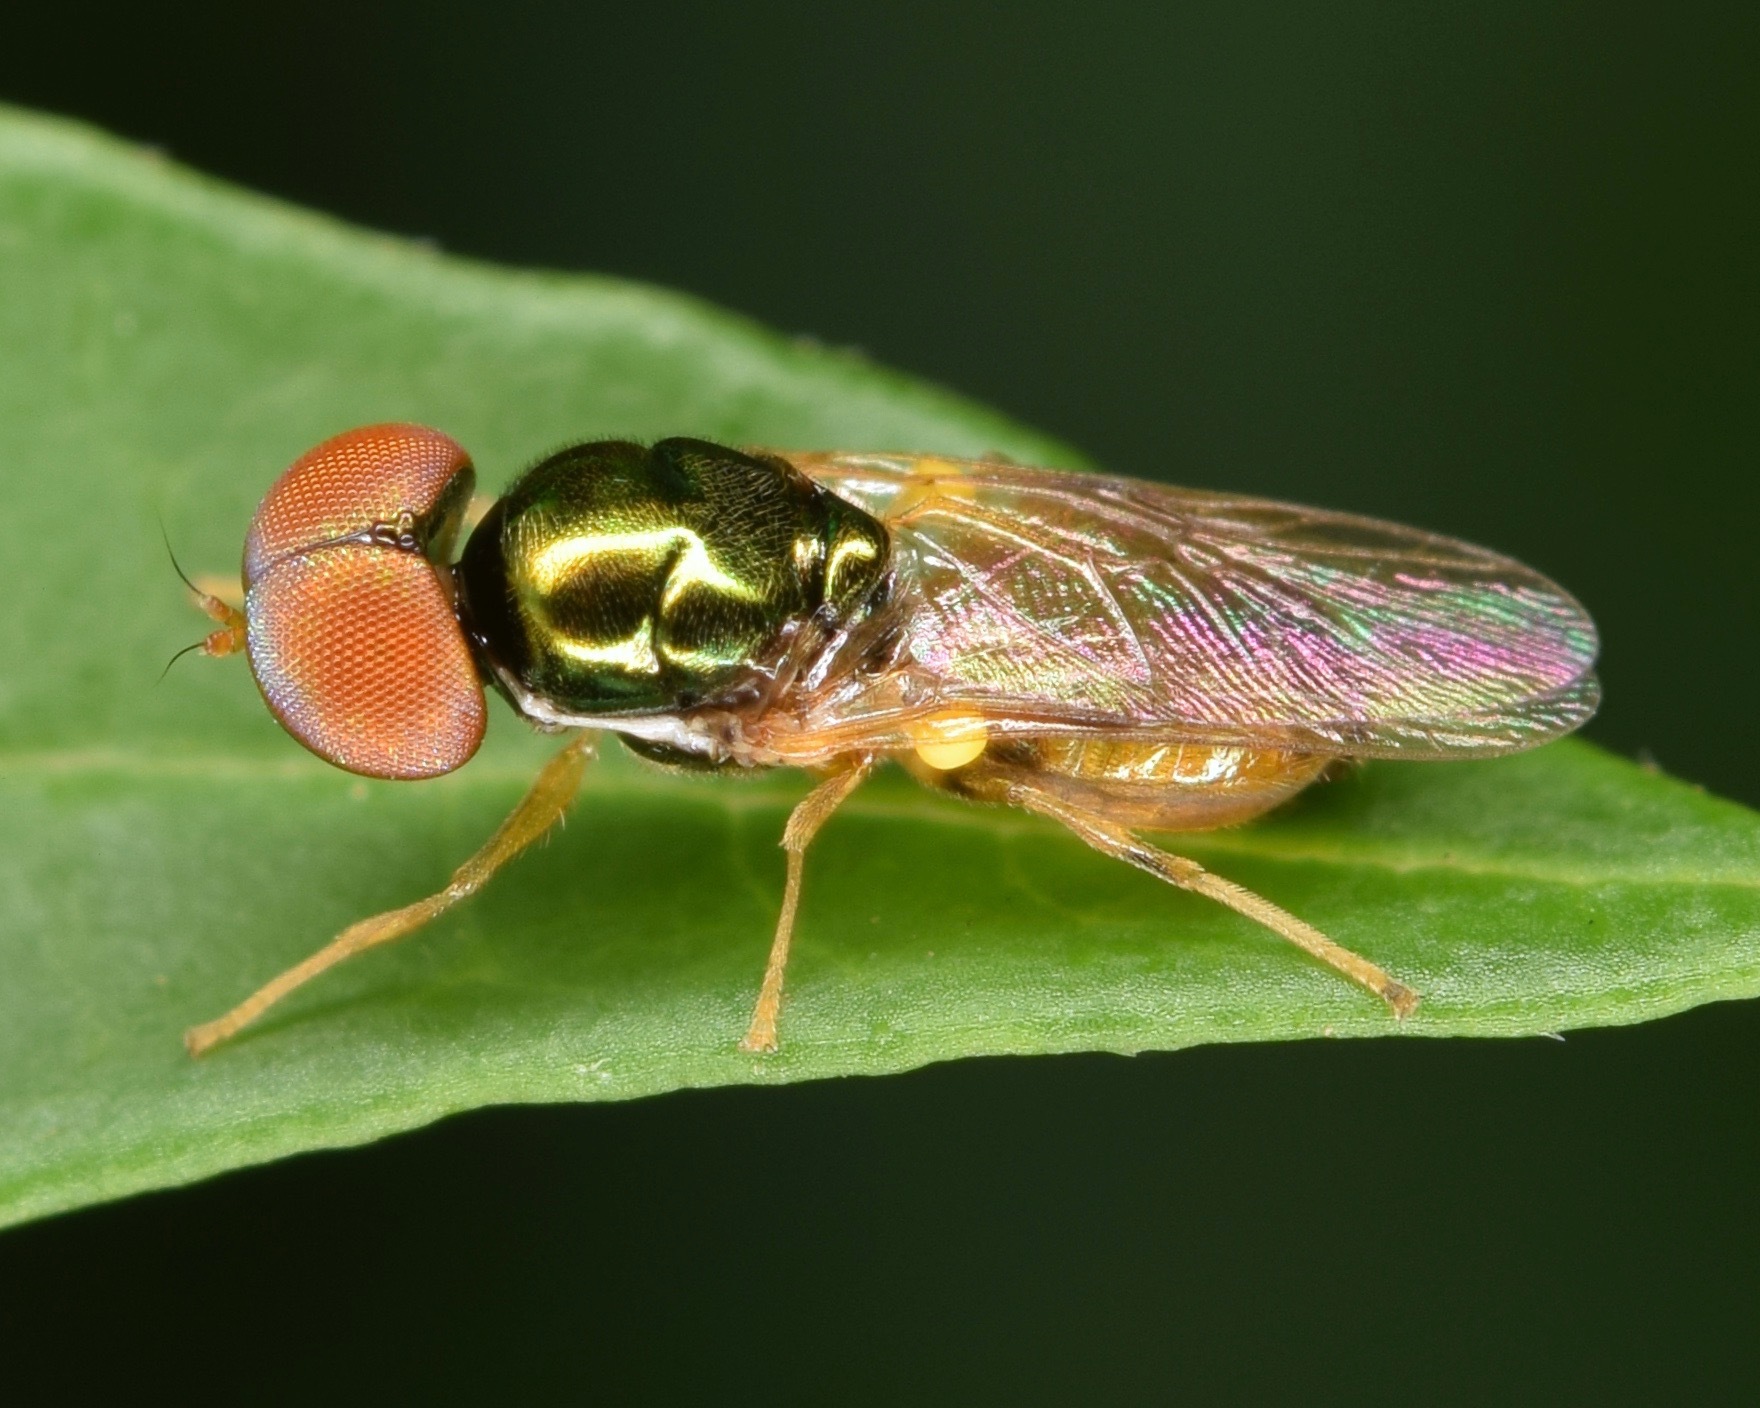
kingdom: Animalia
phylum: Arthropoda
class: Insecta
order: Diptera
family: Stratiomyidae
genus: Microchrysa
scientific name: Microchrysa flaviventris
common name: Soldier fly
